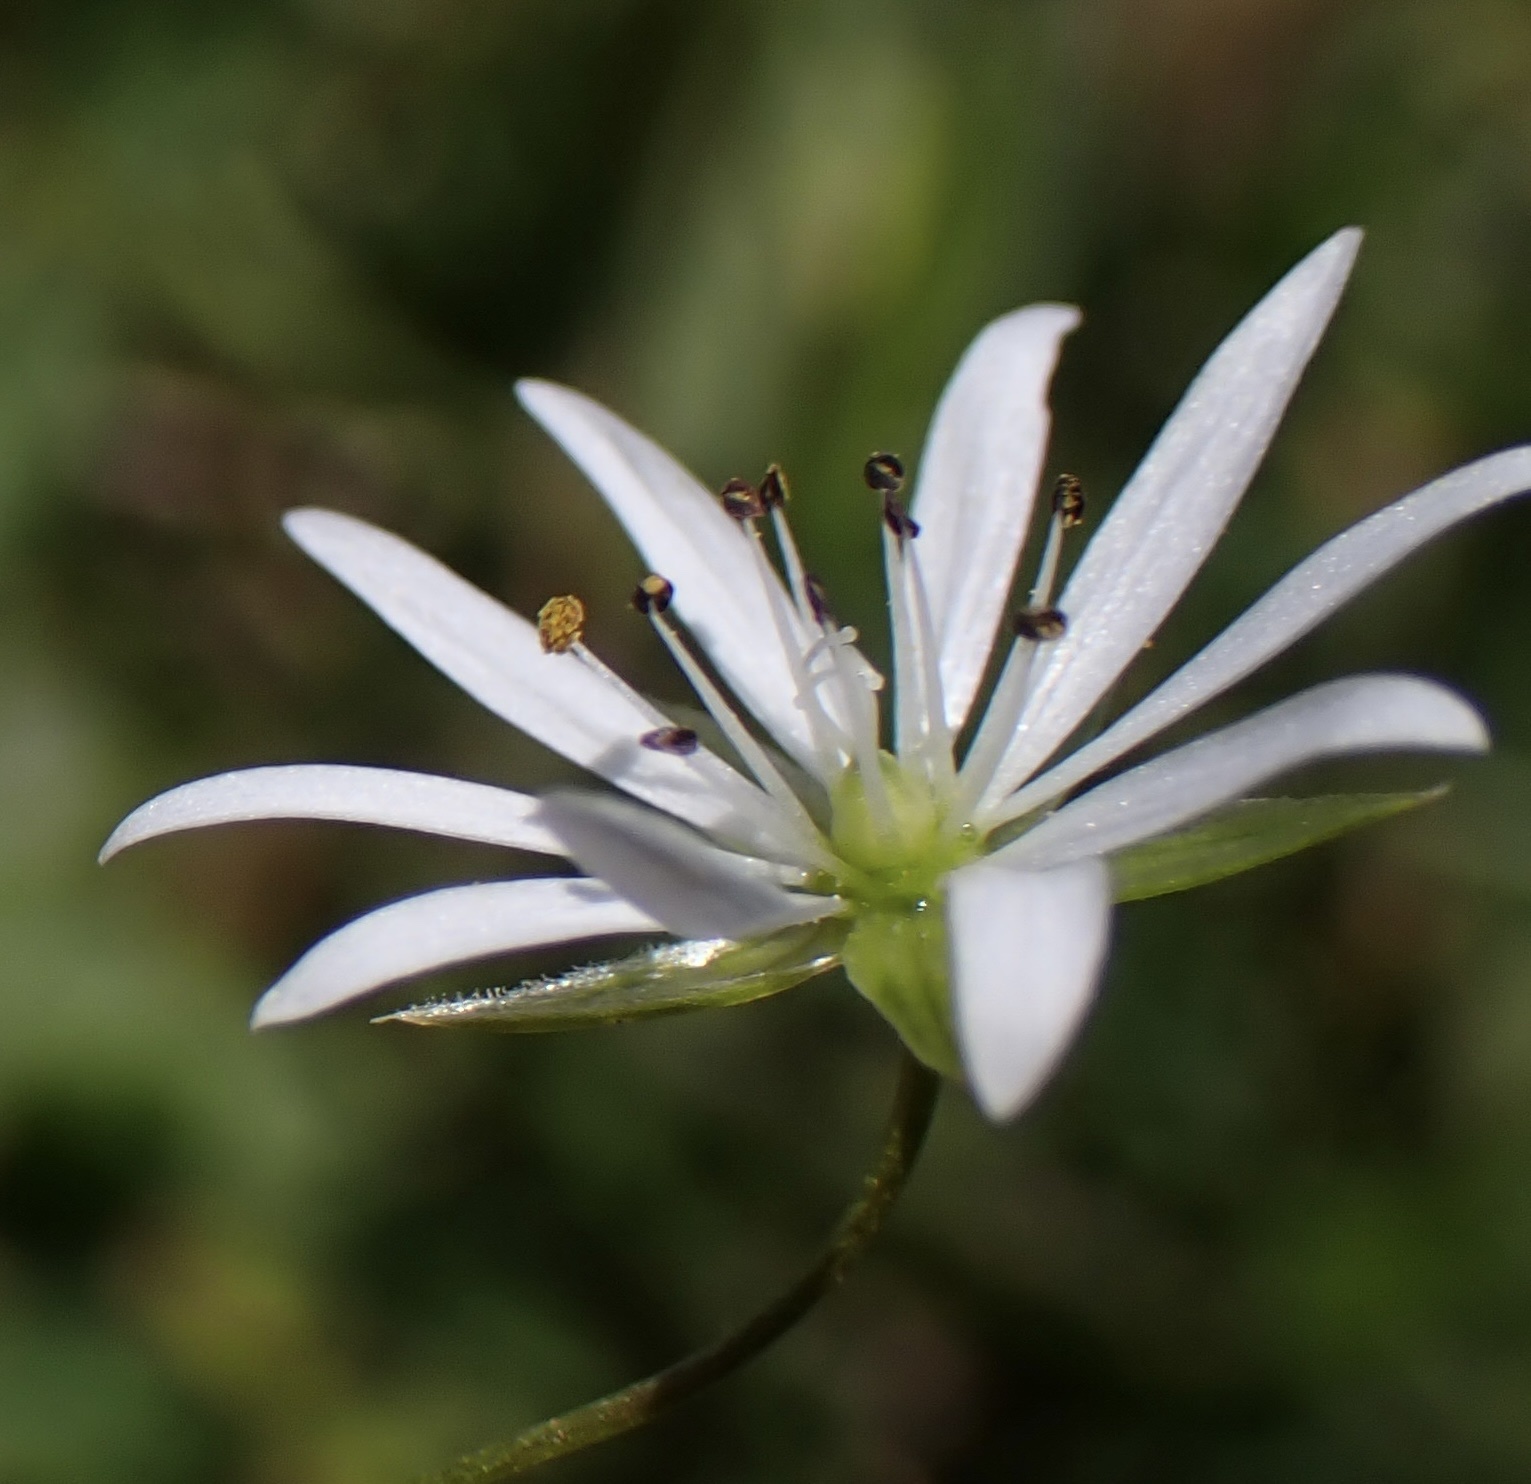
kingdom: Plantae
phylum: Tracheophyta
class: Magnoliopsida
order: Caryophyllales
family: Caryophyllaceae
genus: Stellaria
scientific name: Stellaria graminea
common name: Grass-like starwort
